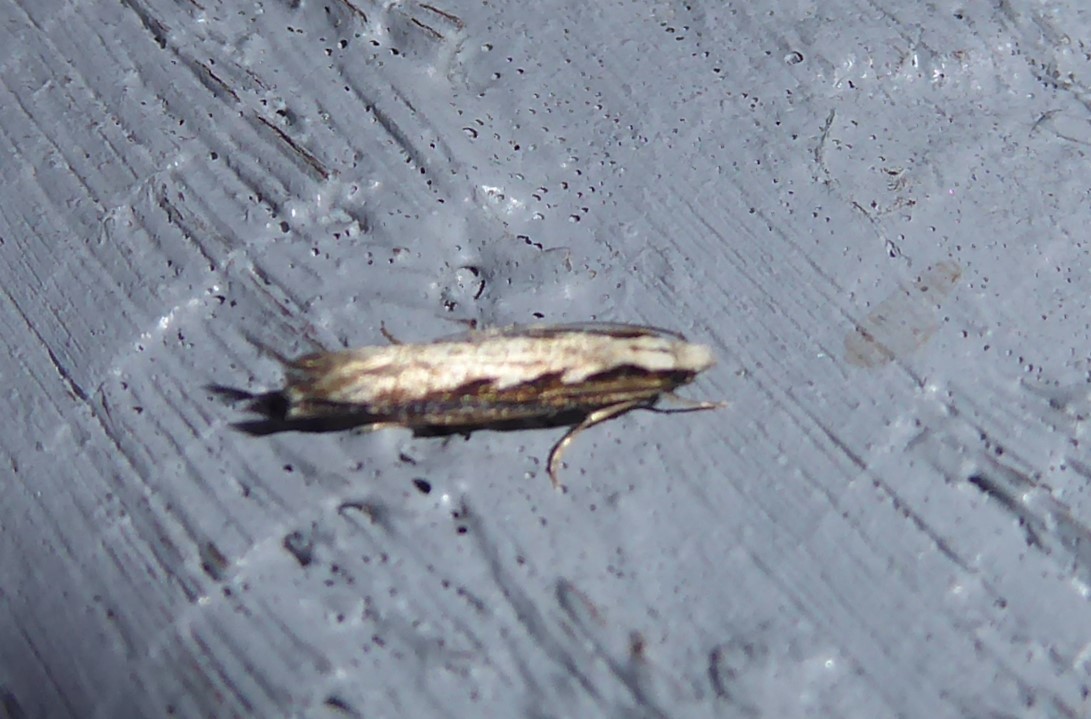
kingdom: Animalia
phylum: Arthropoda
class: Insecta
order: Lepidoptera
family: Tineidae
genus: Erechthias
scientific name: Erechthias fulguritella
